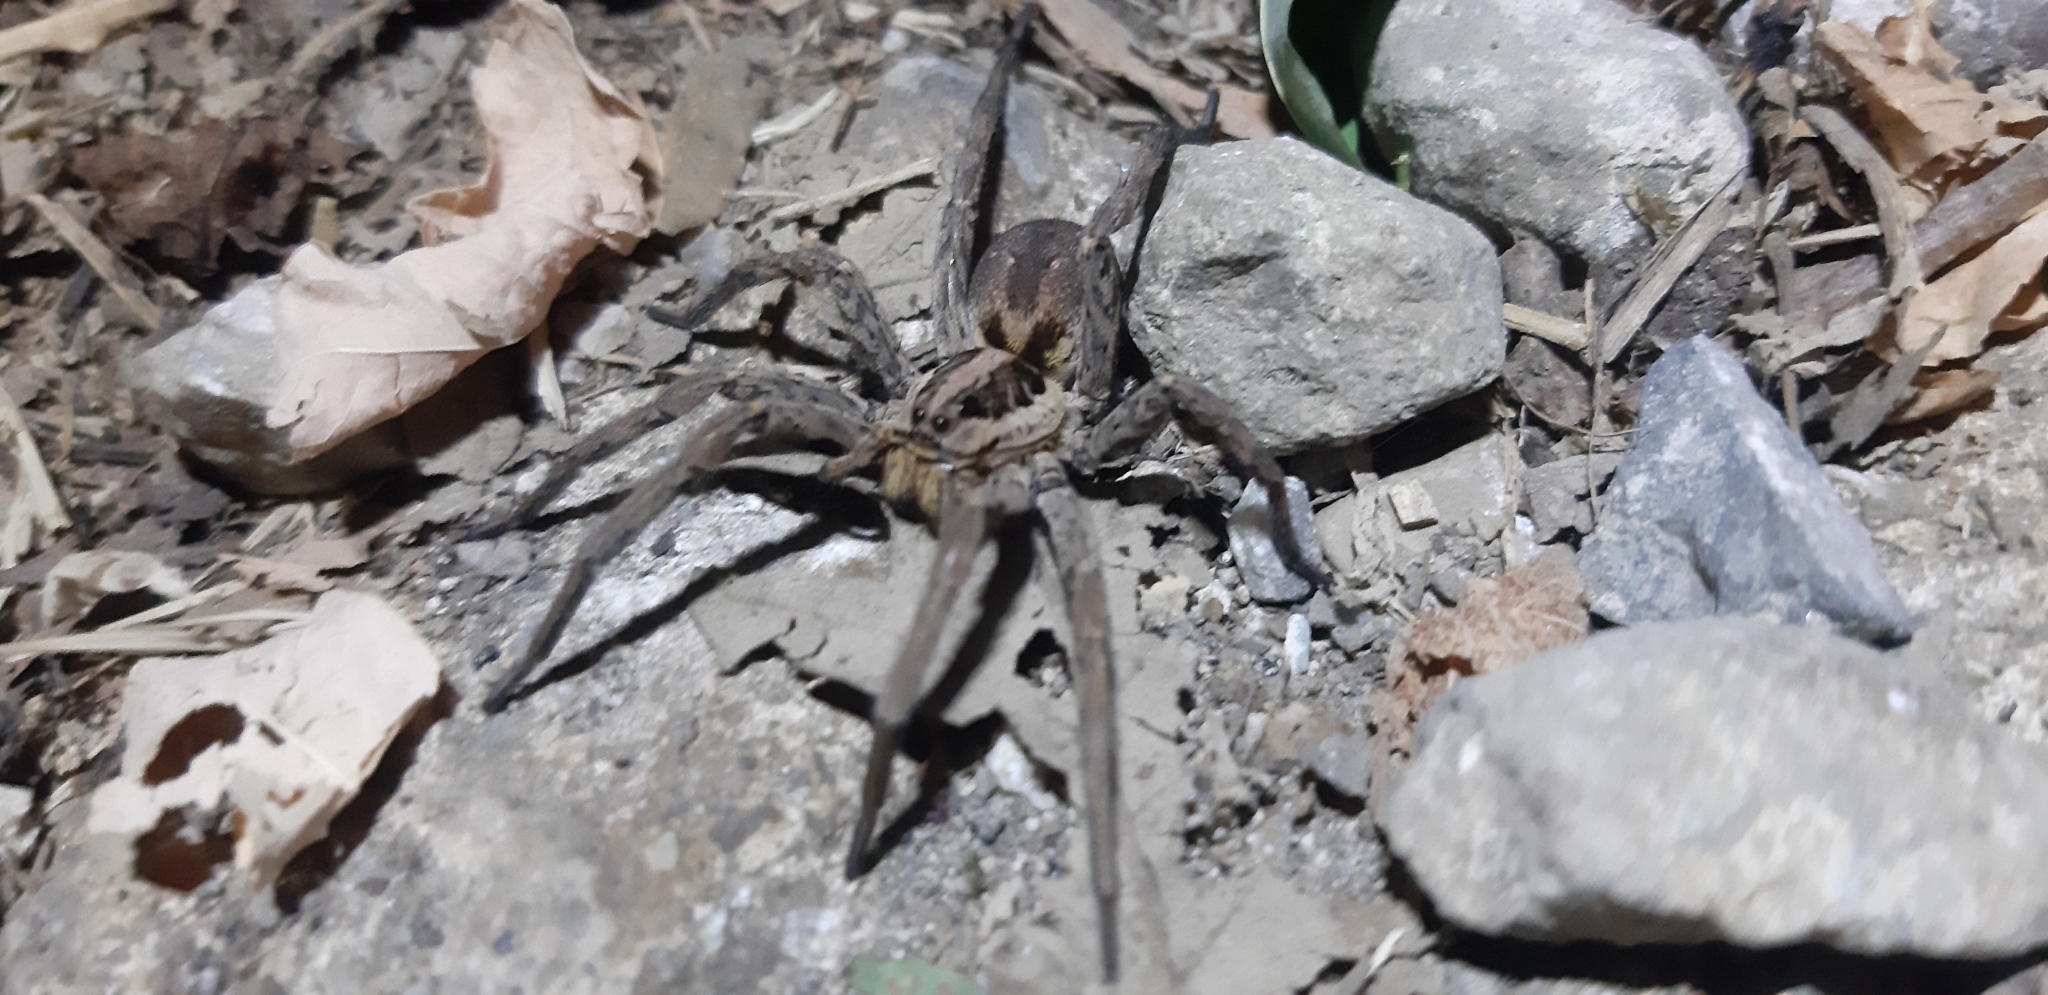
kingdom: Animalia
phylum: Arthropoda
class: Arachnida
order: Araneae
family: Lycosidae
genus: Hogna
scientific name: Hogna radiata
